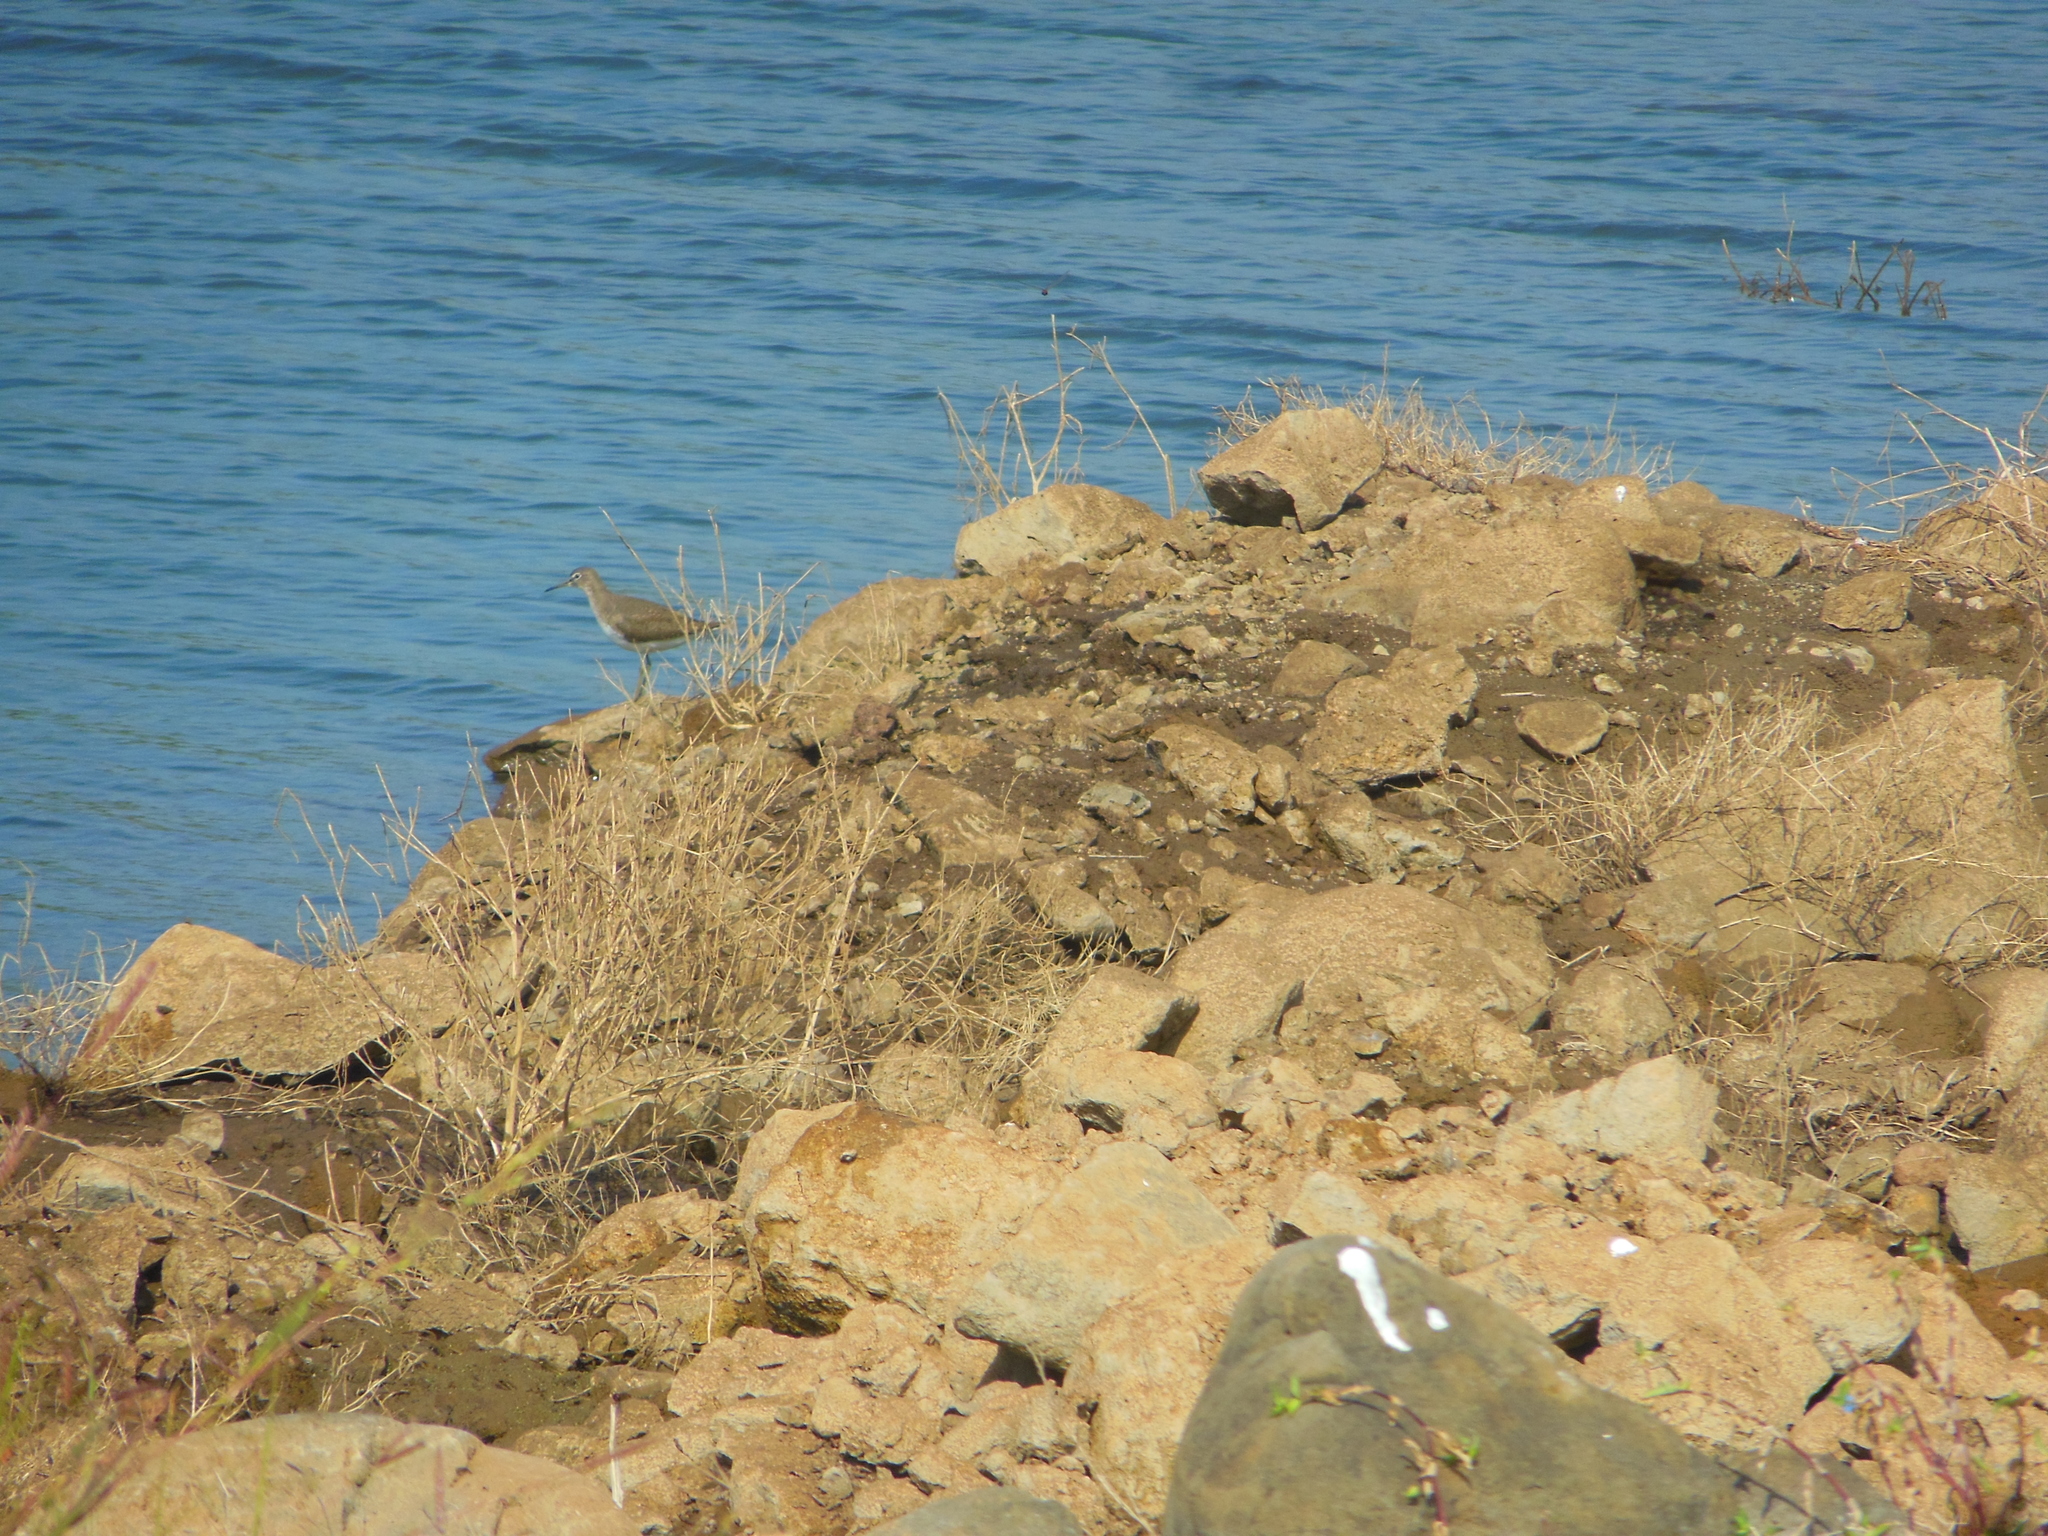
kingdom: Animalia
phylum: Chordata
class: Aves
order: Charadriiformes
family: Scolopacidae
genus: Tringa
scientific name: Tringa ochropus
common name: Green sandpiper
